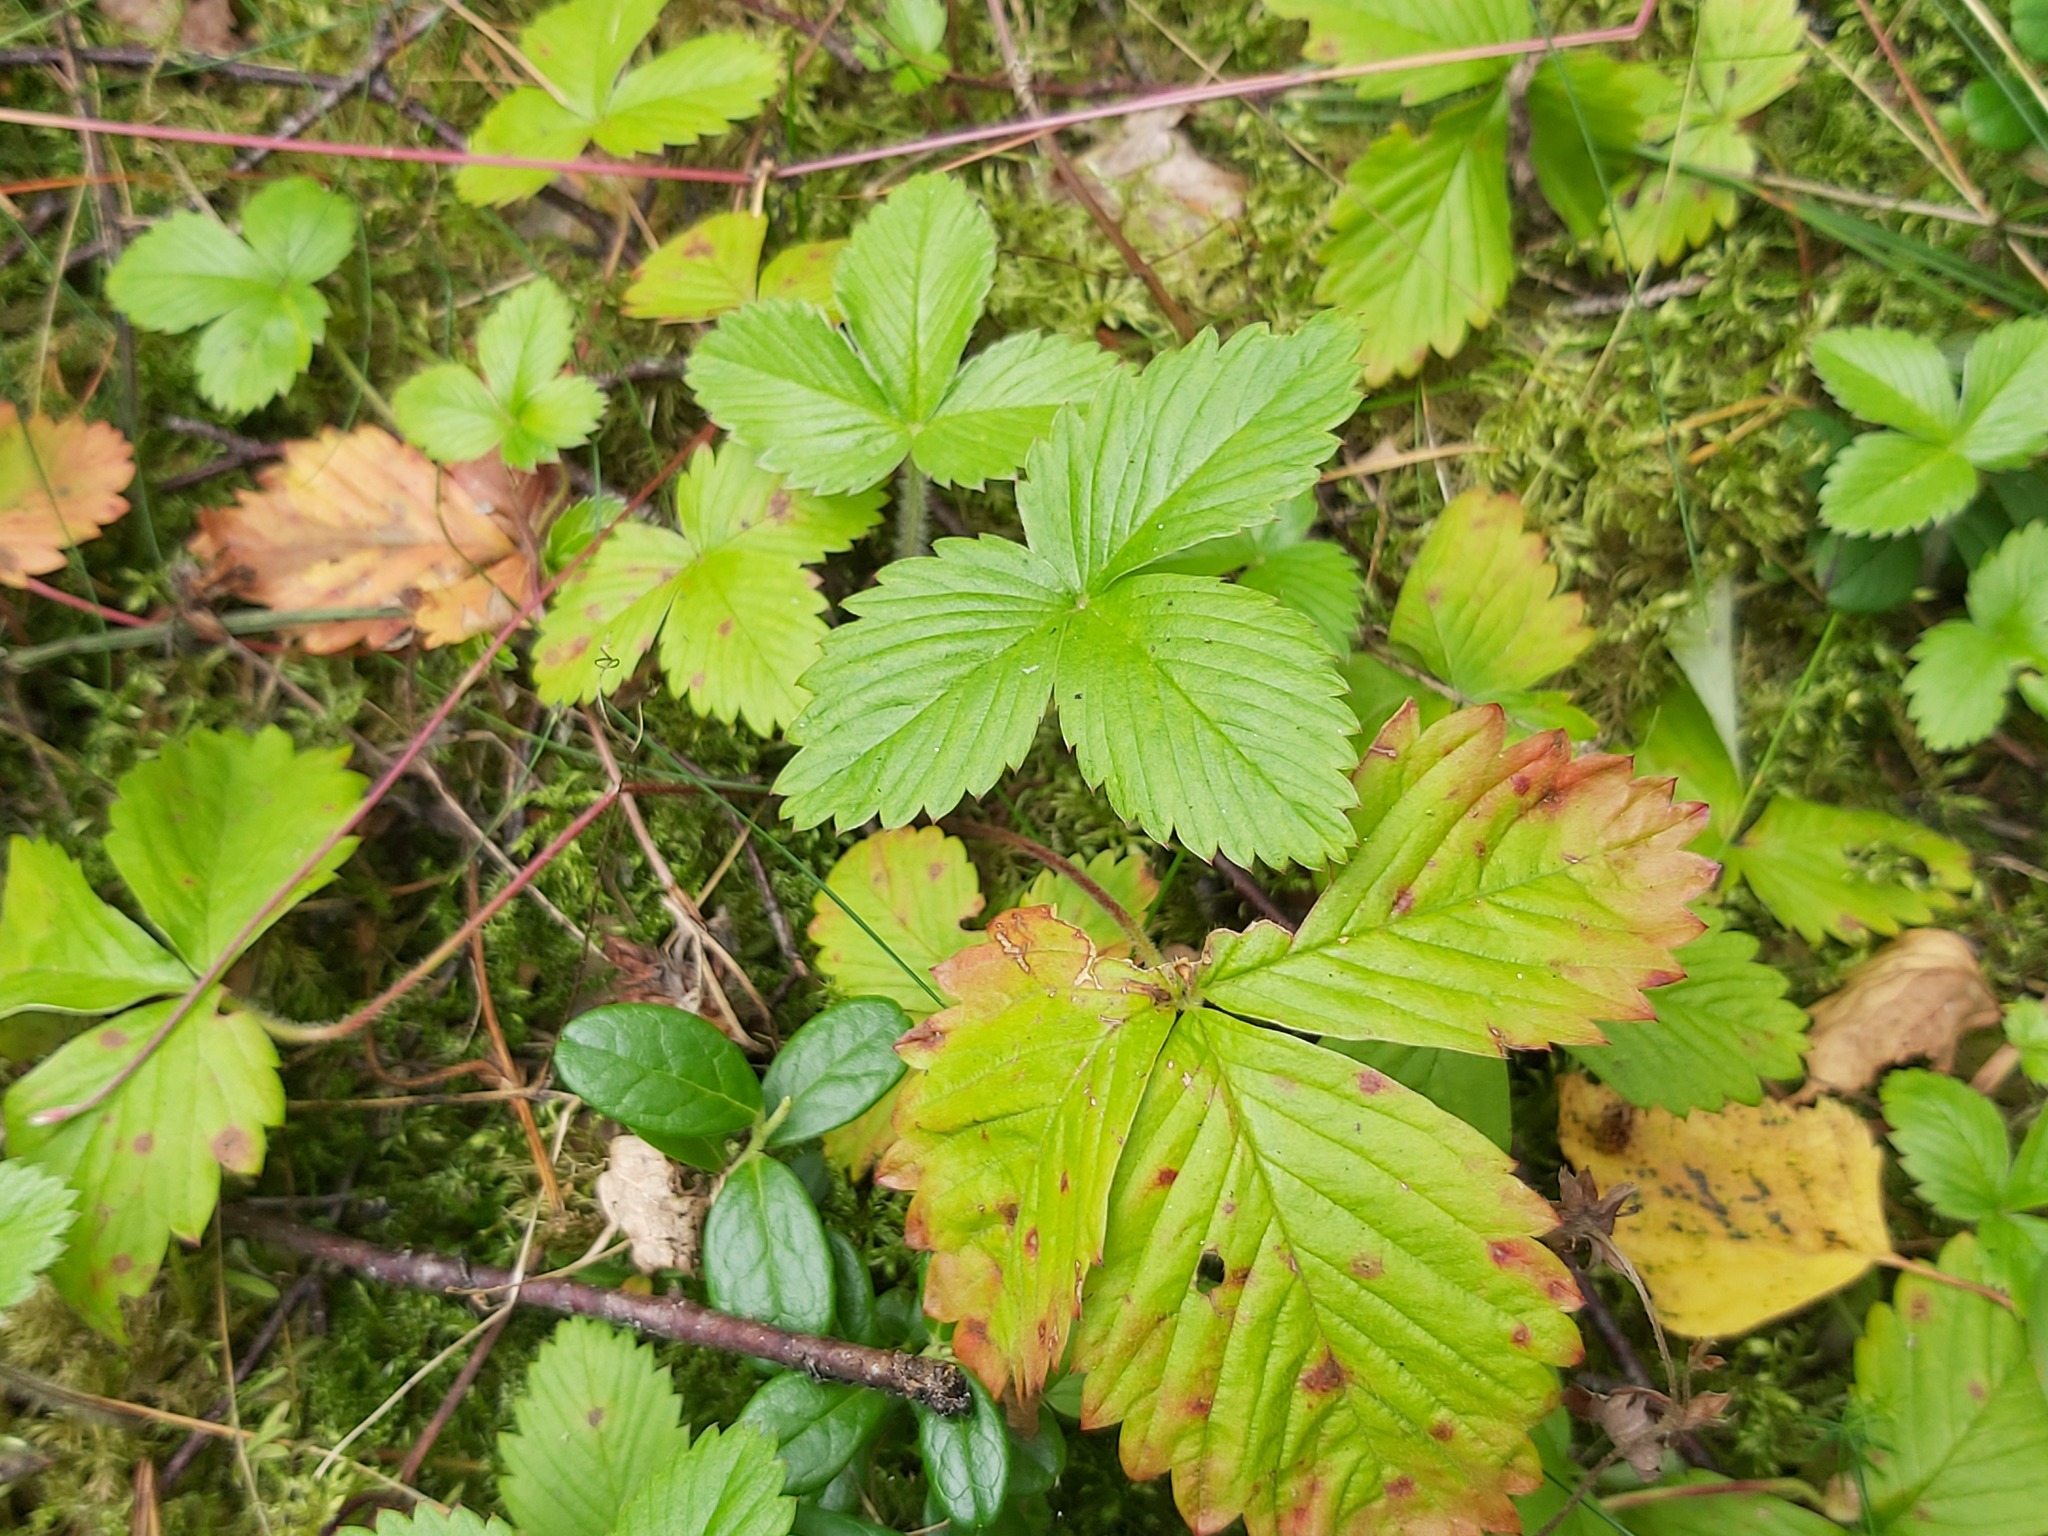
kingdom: Plantae
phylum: Tracheophyta
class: Magnoliopsida
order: Rosales
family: Rosaceae
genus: Fragaria
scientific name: Fragaria vesca
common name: Wild strawberry
